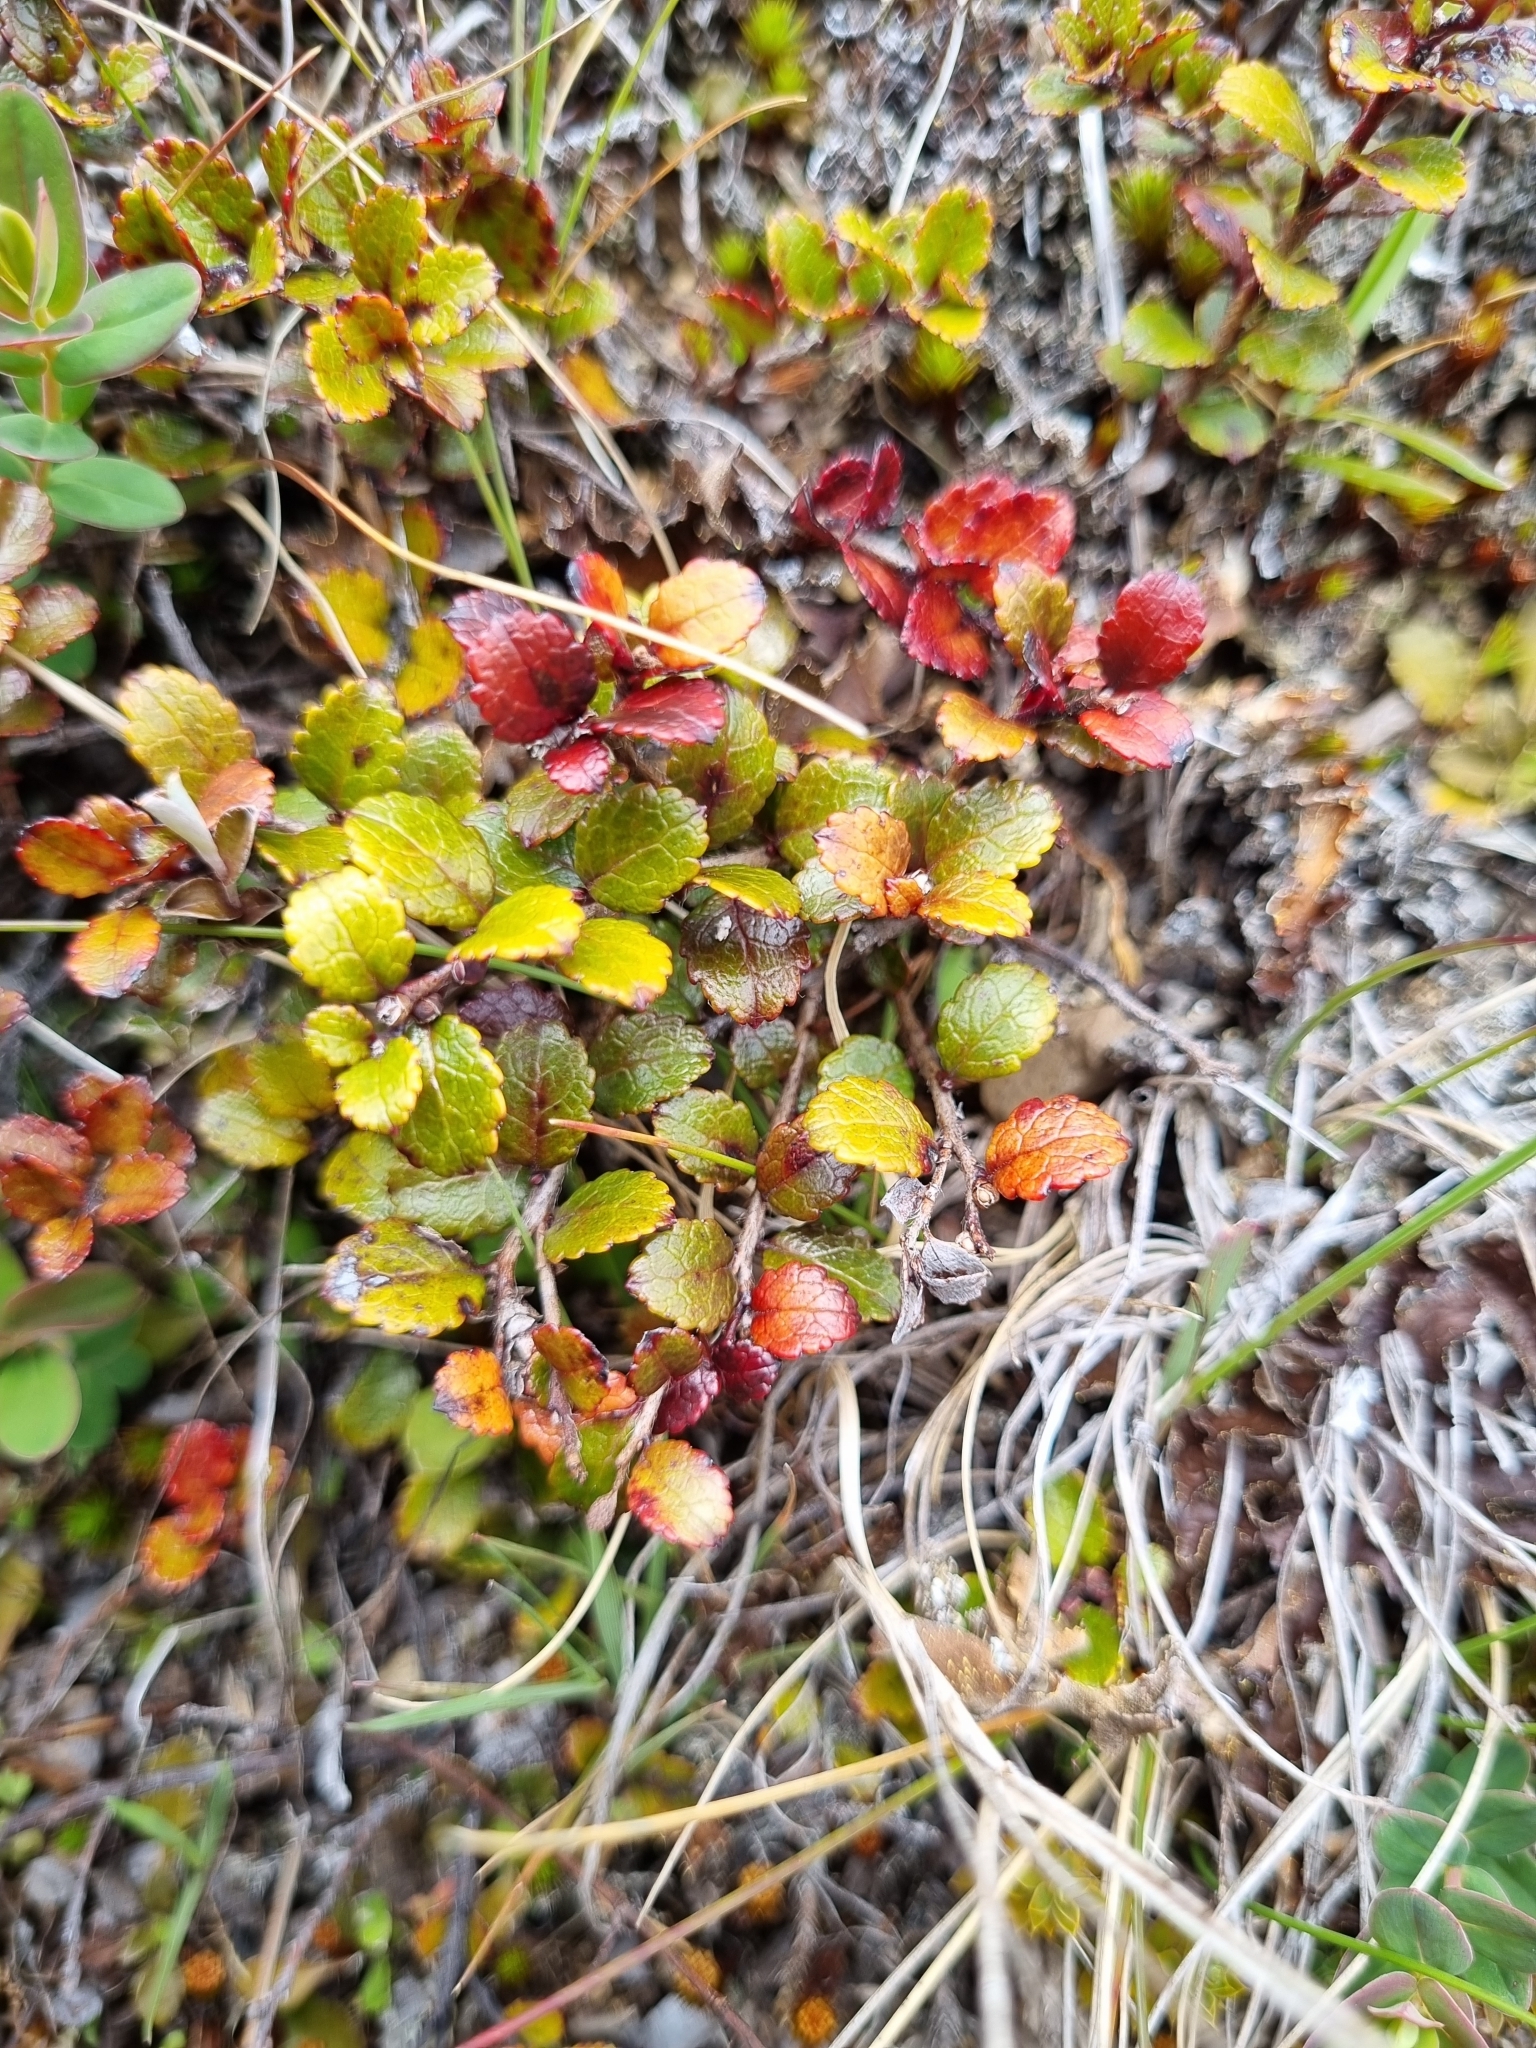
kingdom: Plantae
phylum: Tracheophyta
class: Magnoliopsida
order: Ericales
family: Ericaceae
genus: Gaultheria
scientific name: Gaultheria depressa
